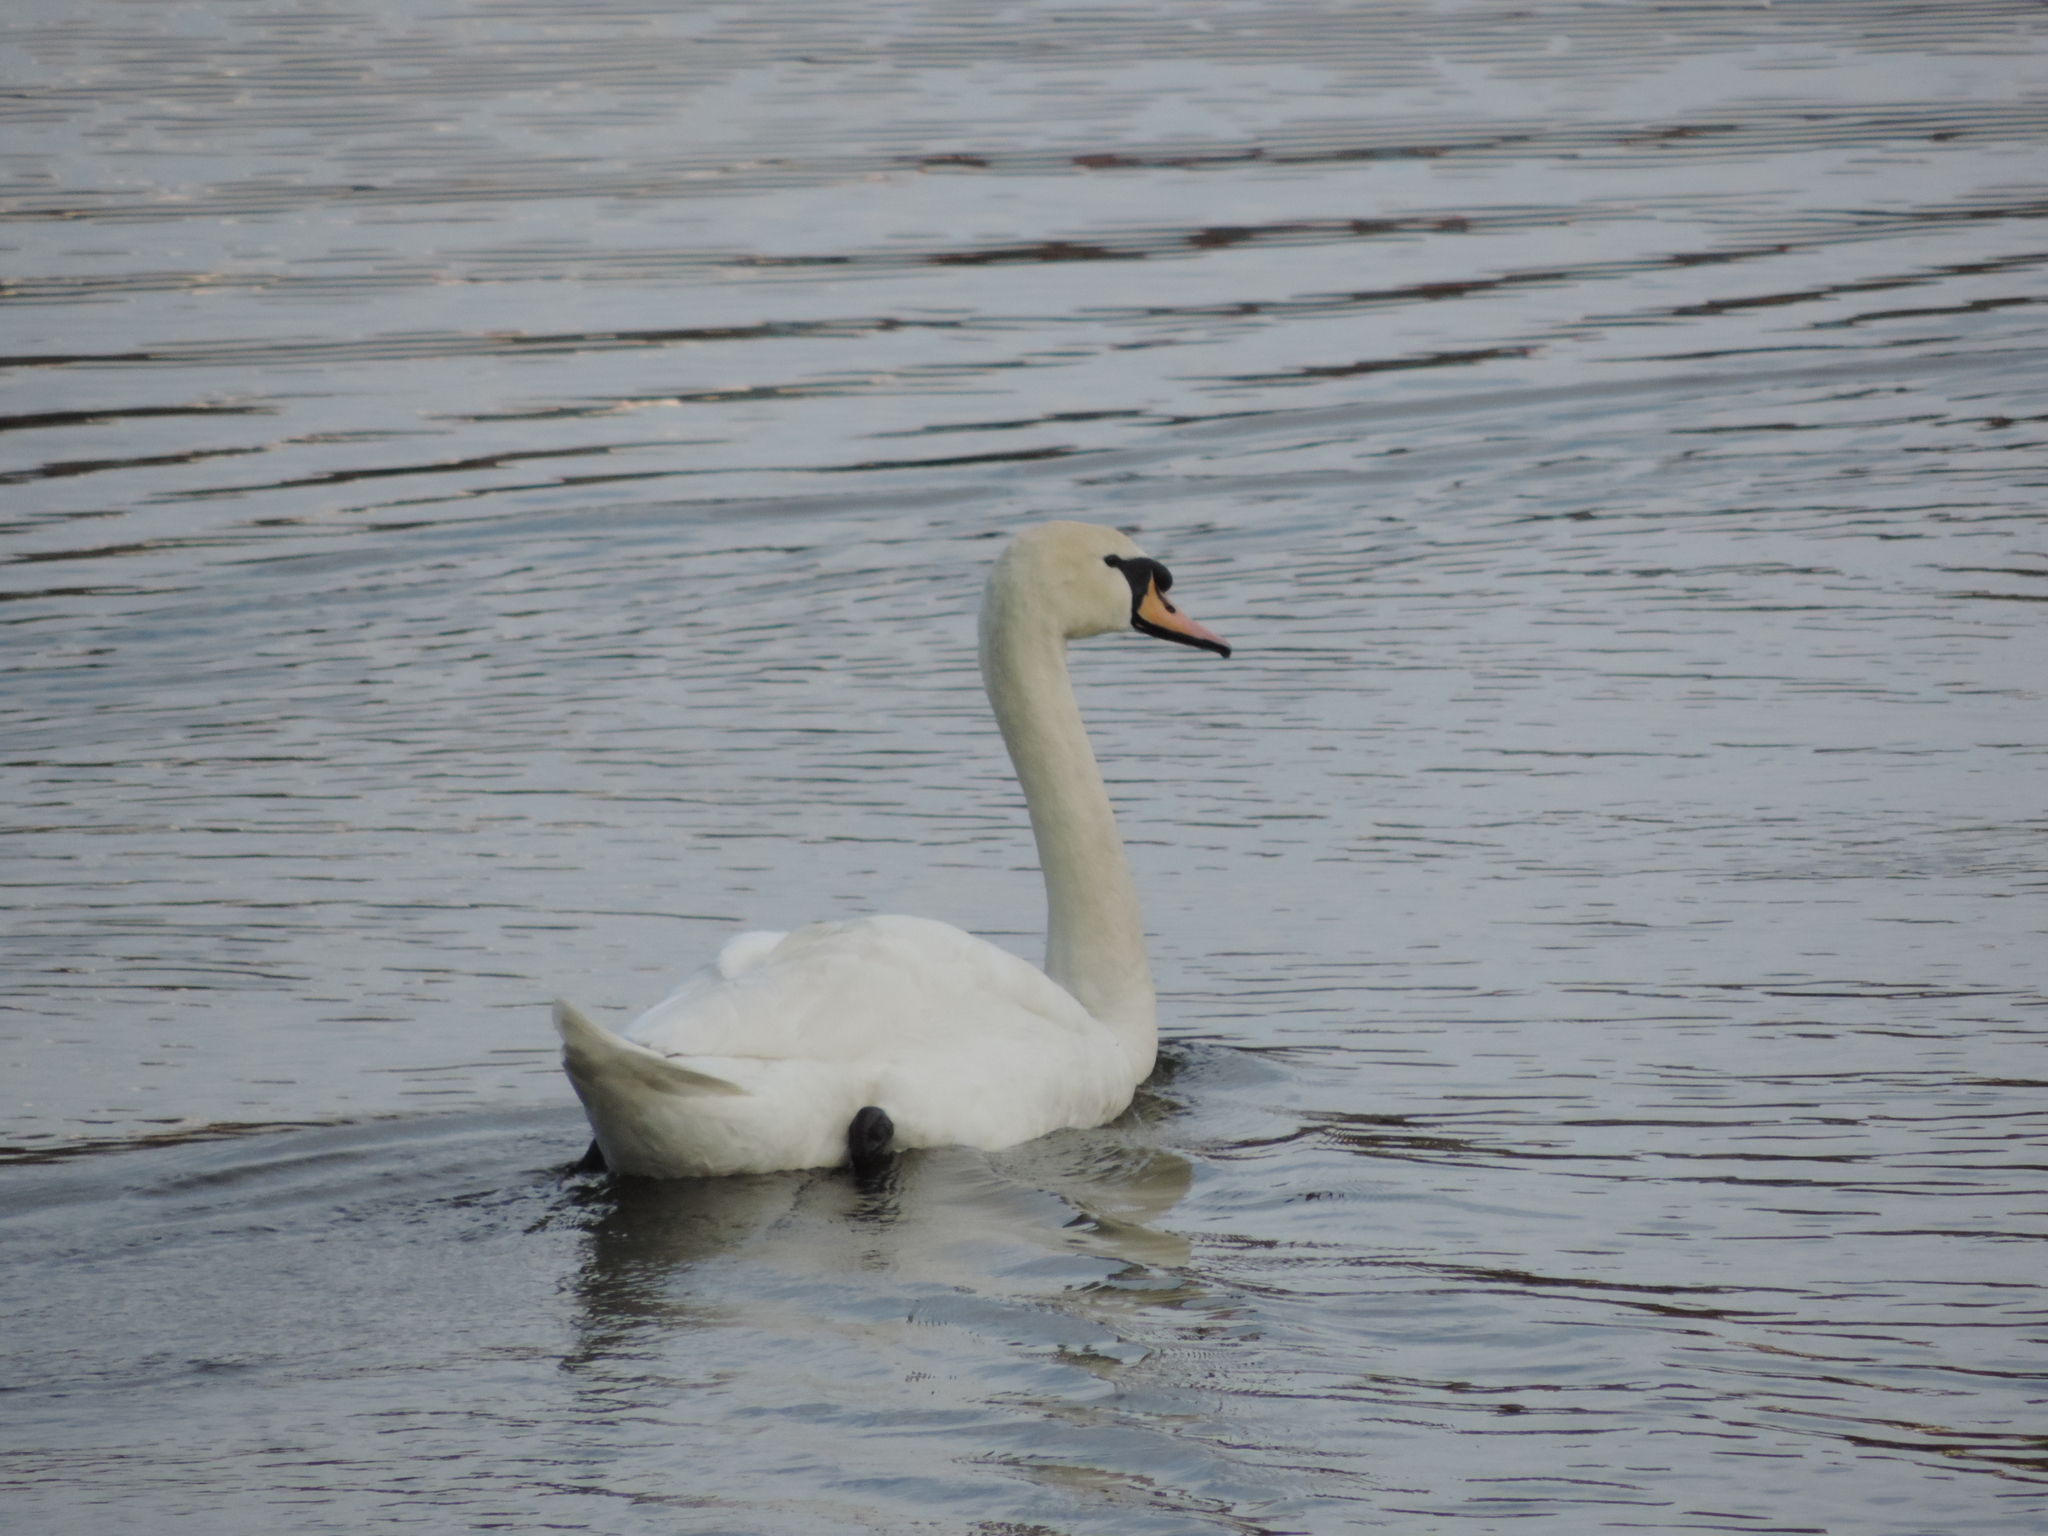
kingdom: Animalia
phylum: Chordata
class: Aves
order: Anseriformes
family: Anatidae
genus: Cygnus
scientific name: Cygnus olor
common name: Mute swan
